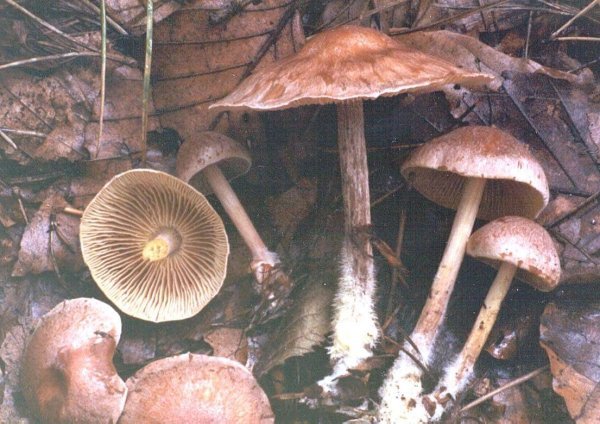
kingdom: Fungi
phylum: Basidiomycota
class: Agaricomycetes
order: Agaricales
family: Omphalotaceae
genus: Collybiopsis
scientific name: Collybiopsis peronata
